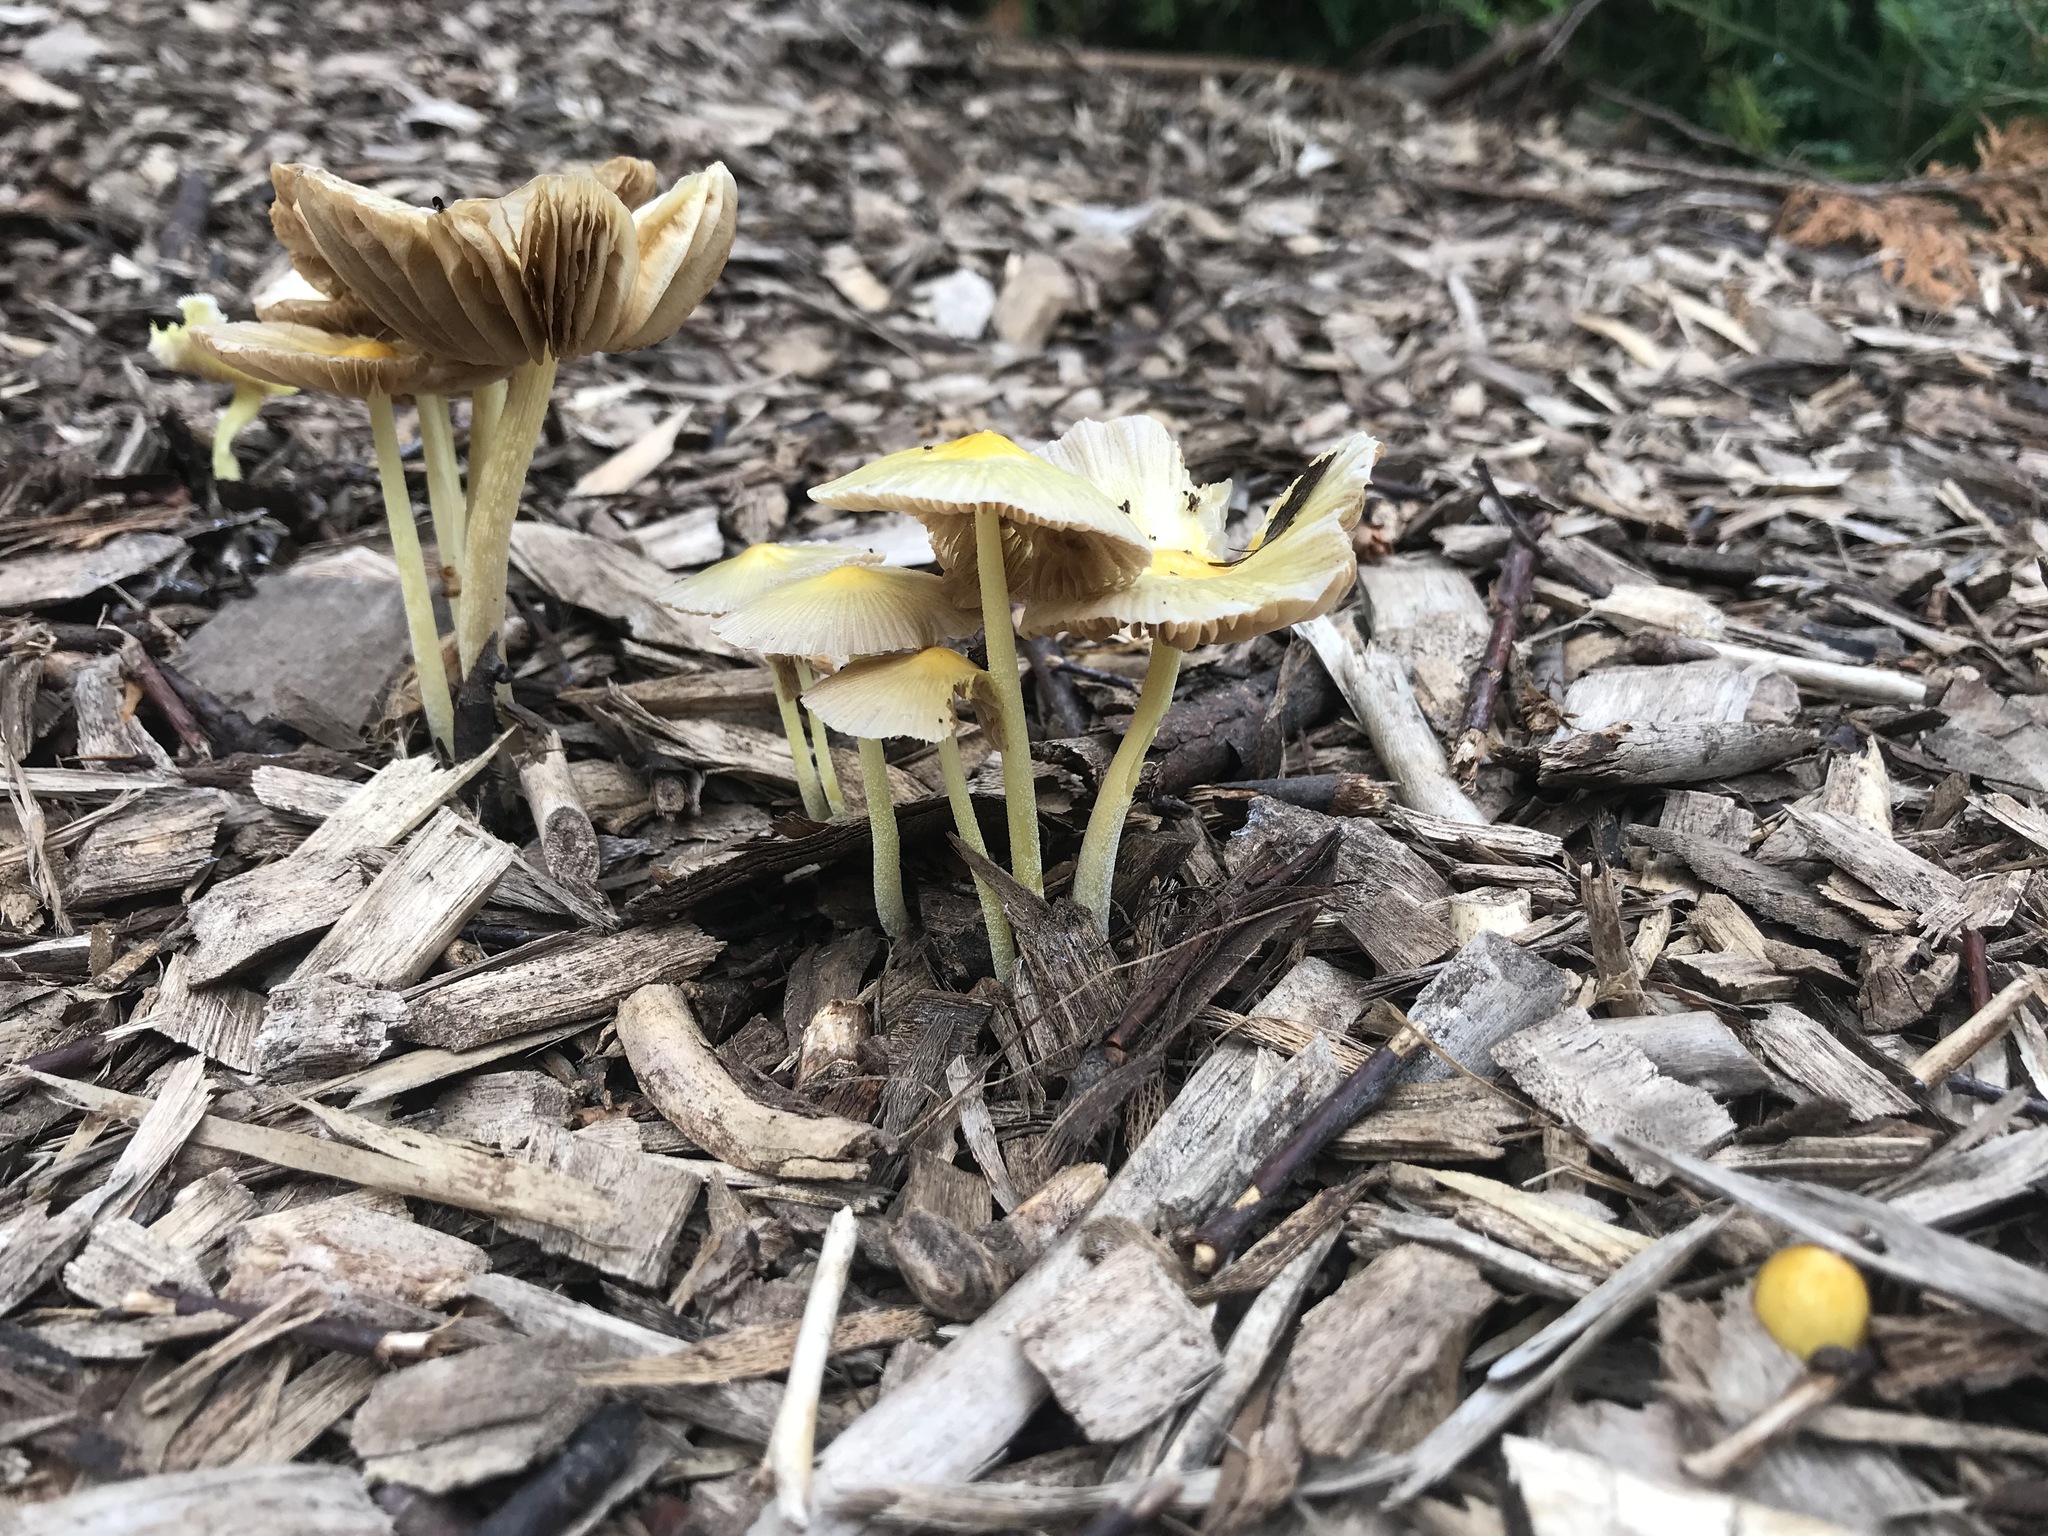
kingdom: Fungi
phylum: Basidiomycota
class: Agaricomycetes
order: Agaricales
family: Bolbitiaceae
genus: Bolbitius
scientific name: Bolbitius titubans
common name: Yellow fieldcap
